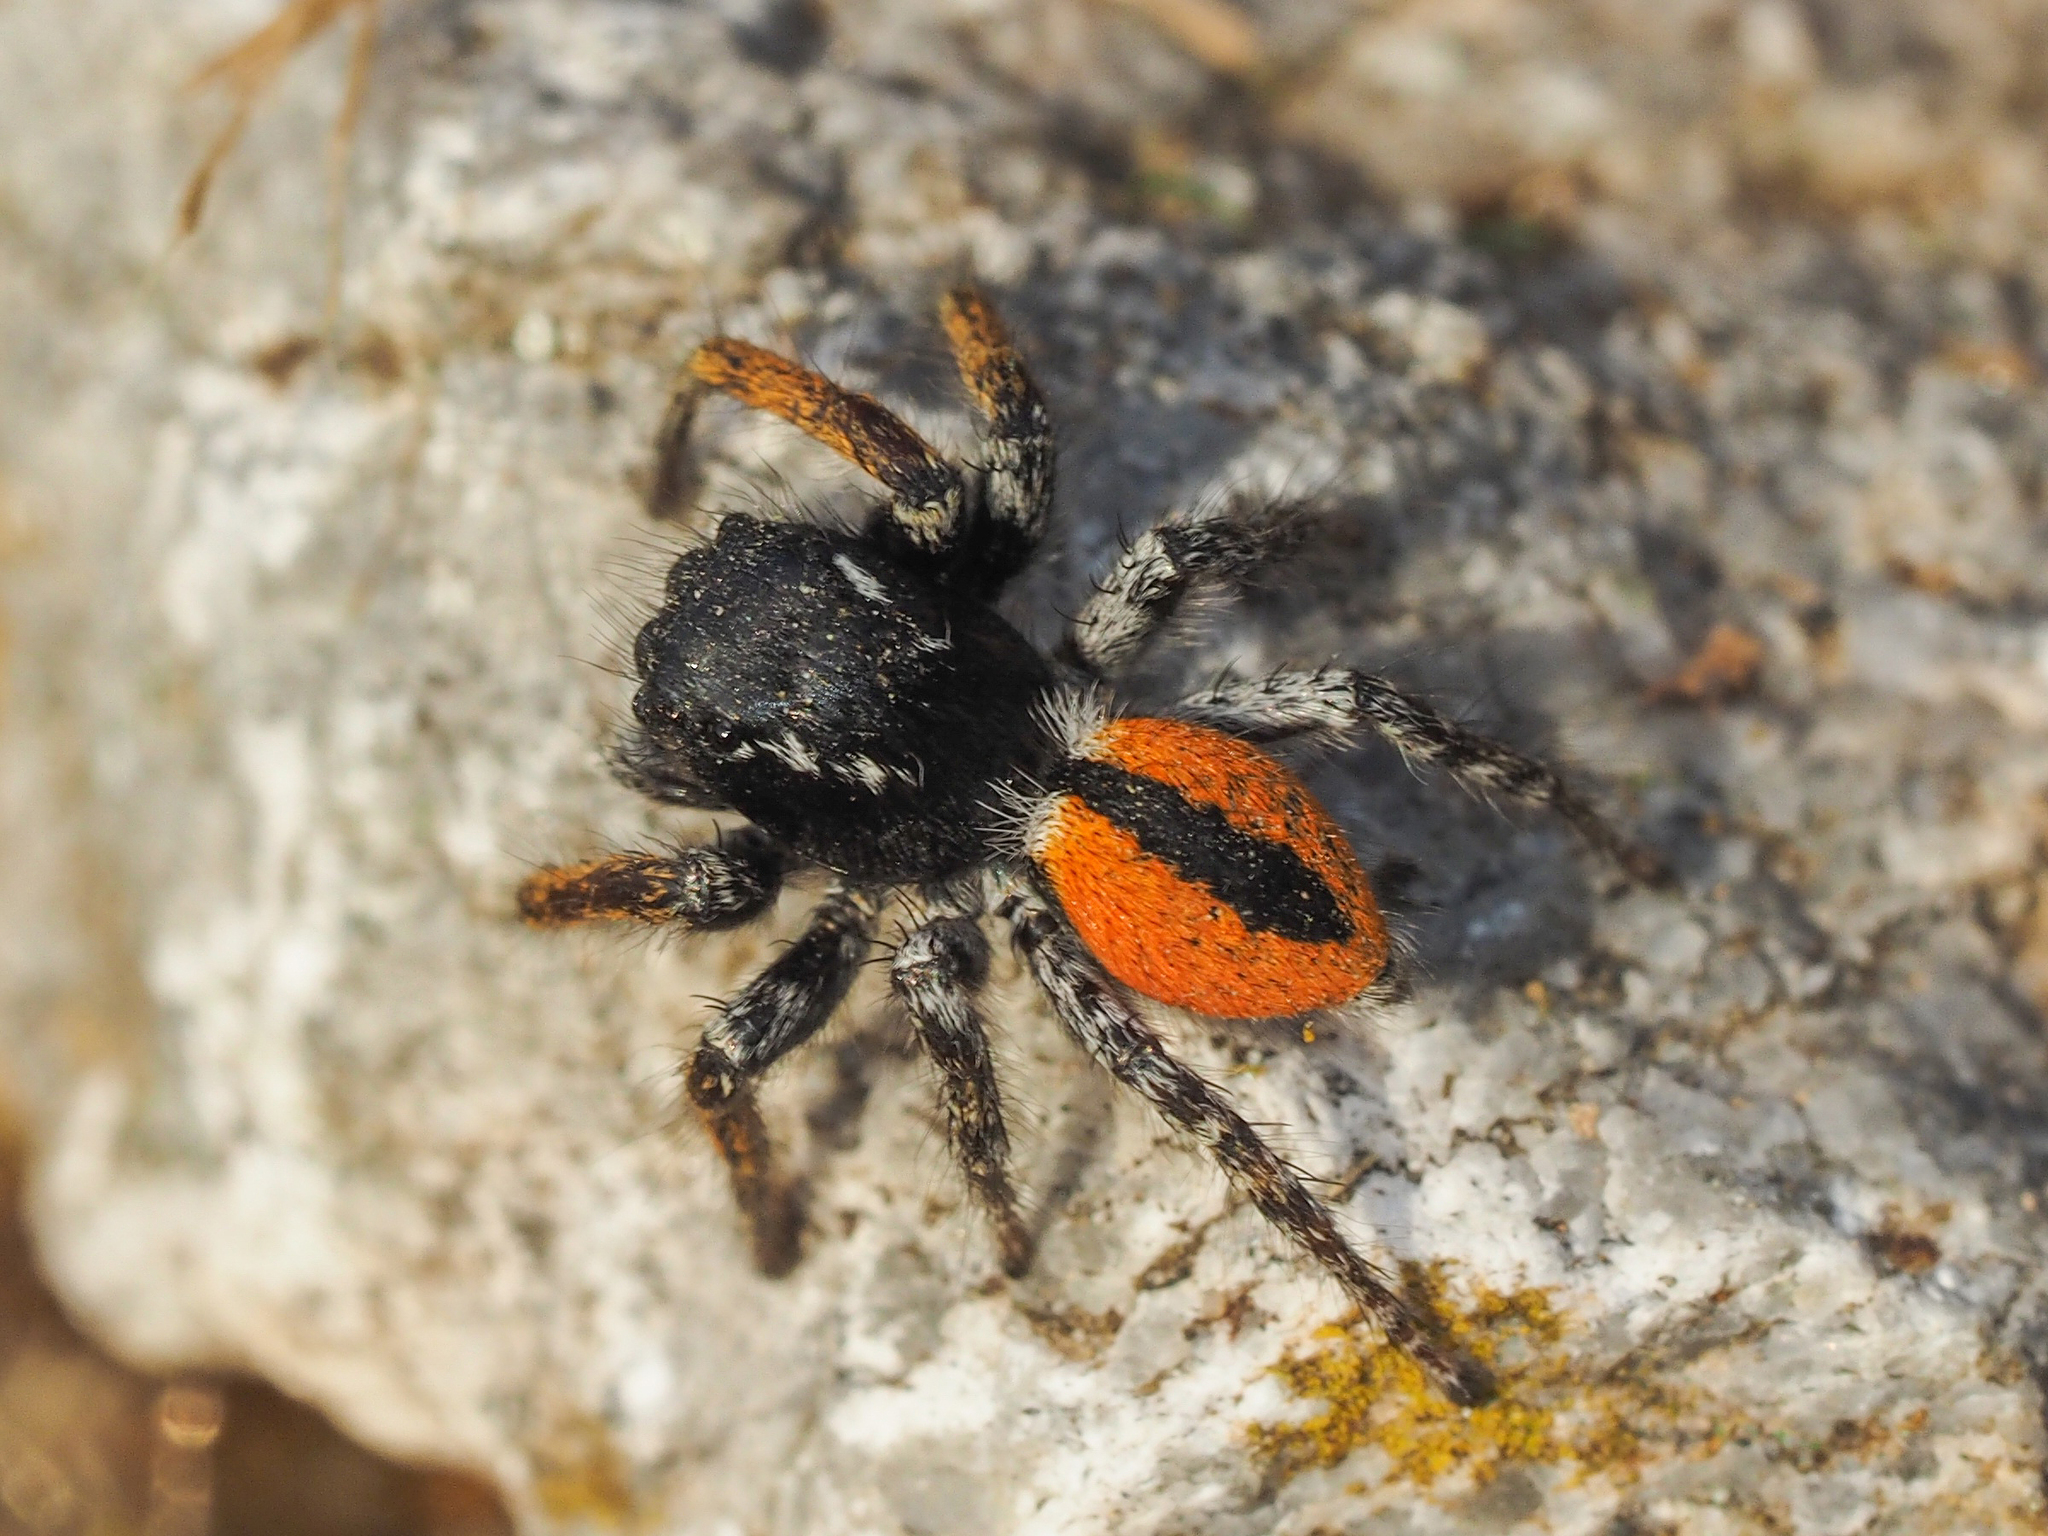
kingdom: Animalia
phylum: Arthropoda
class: Arachnida
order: Araneae
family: Salticidae
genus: Philaeus
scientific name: Philaeus chrysops
